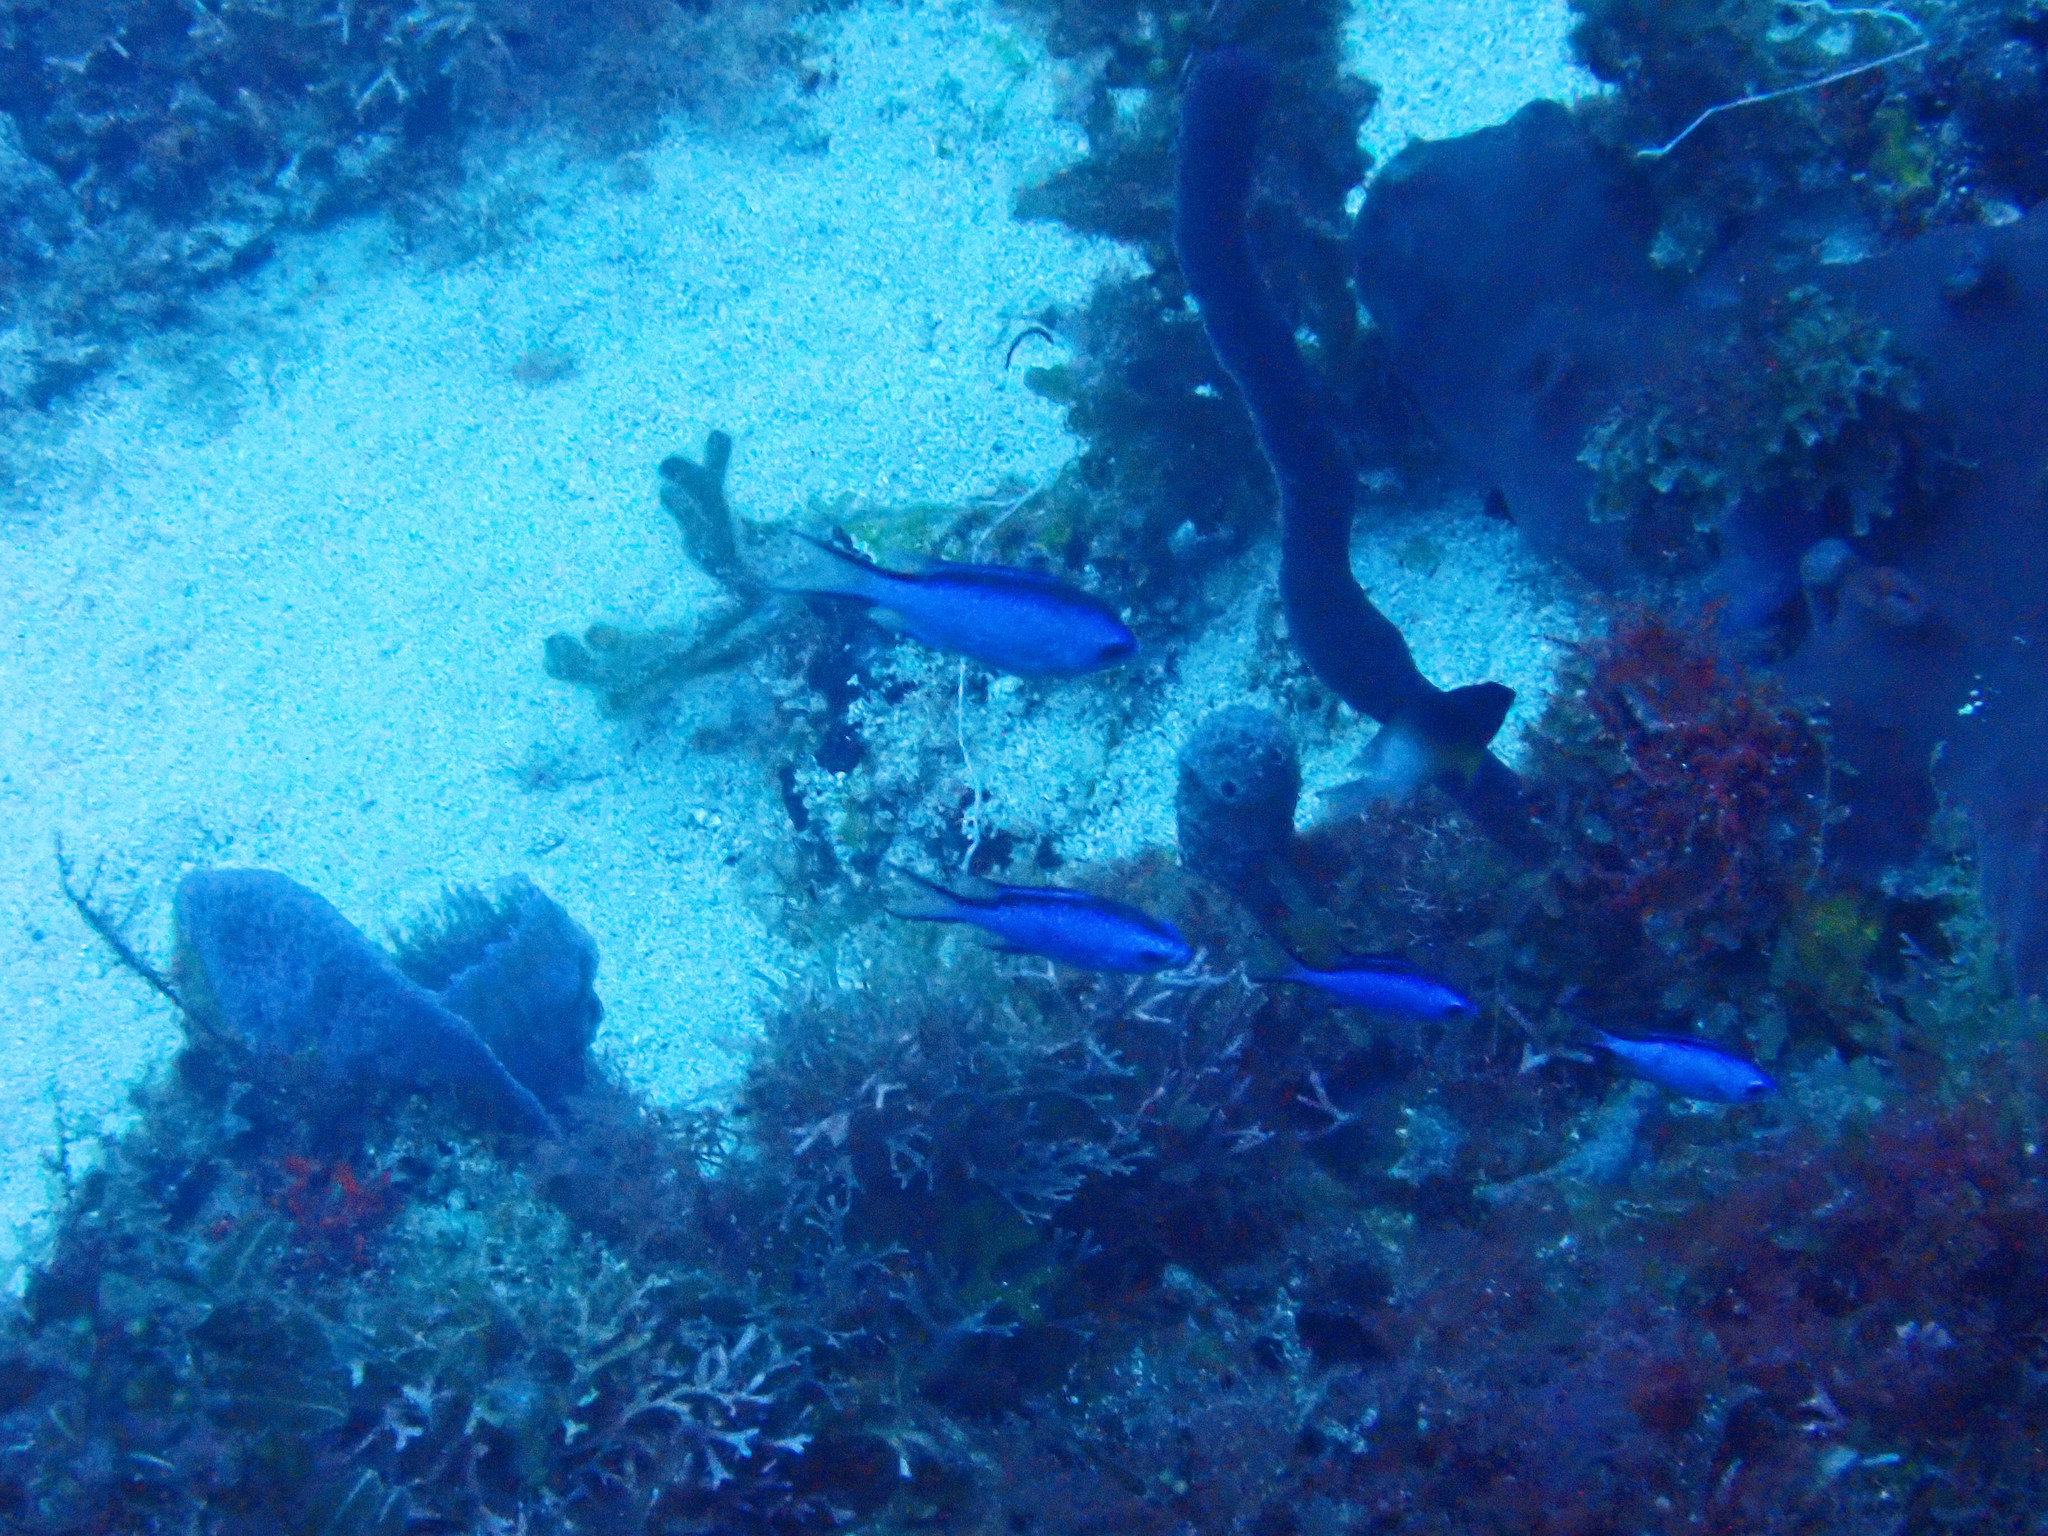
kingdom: Animalia
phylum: Chordata
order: Perciformes
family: Pomacentridae
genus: Chromis
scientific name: Chromis cyanea
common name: Blue chromis
